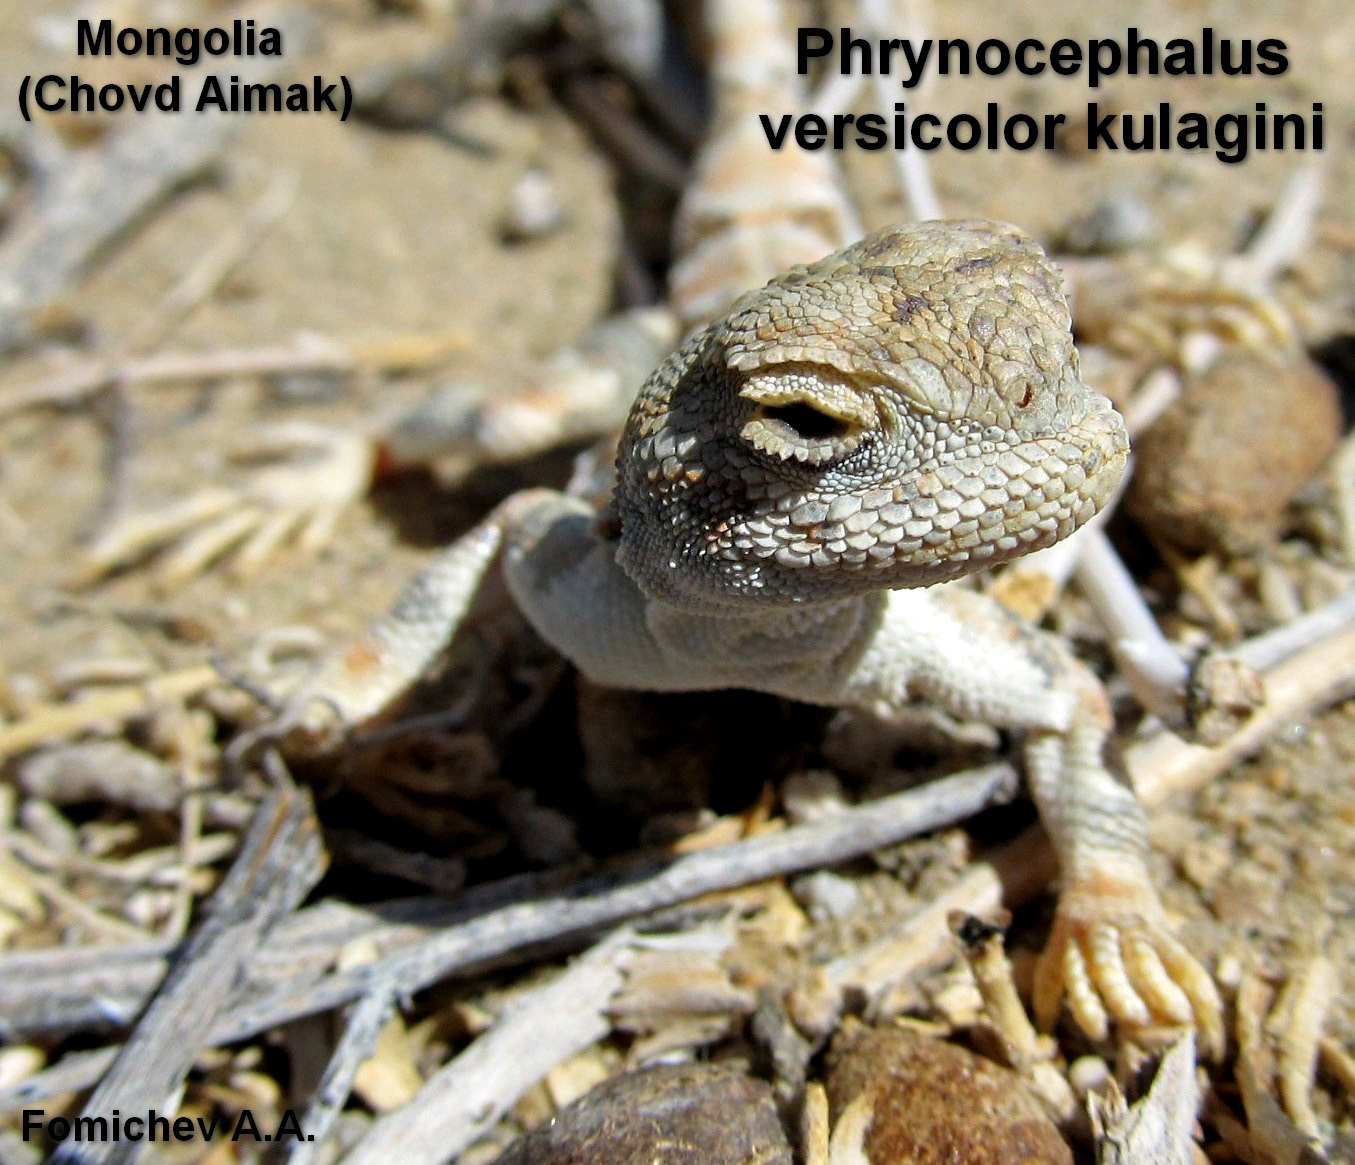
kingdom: Animalia
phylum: Chordata
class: Squamata
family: Agamidae
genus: Phrynocephalus
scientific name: Phrynocephalus versicolor
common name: Tuvan toad-headed agama
